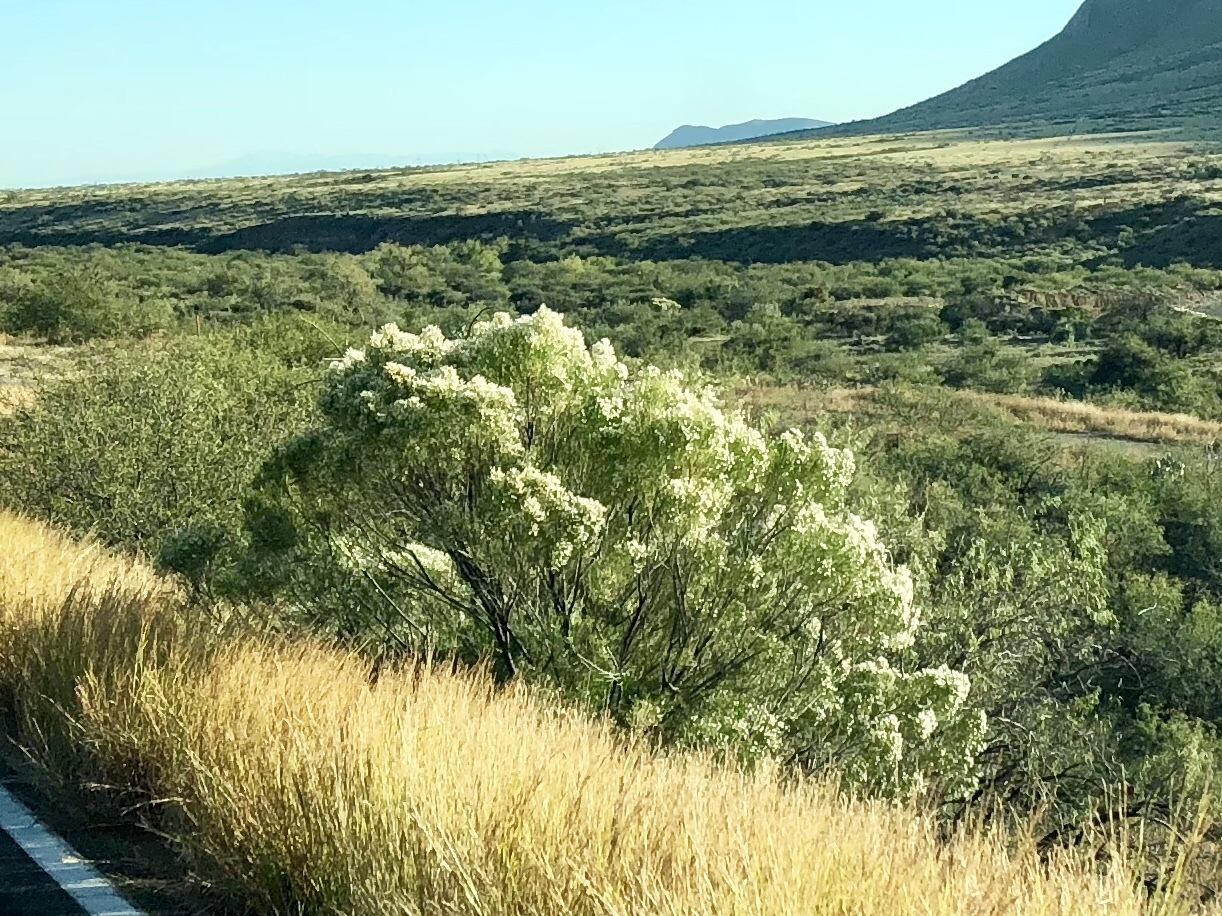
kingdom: Plantae
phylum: Tracheophyta
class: Magnoliopsida
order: Asterales
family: Asteraceae
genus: Baccharis
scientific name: Baccharis sarothroides
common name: Desert-broom
